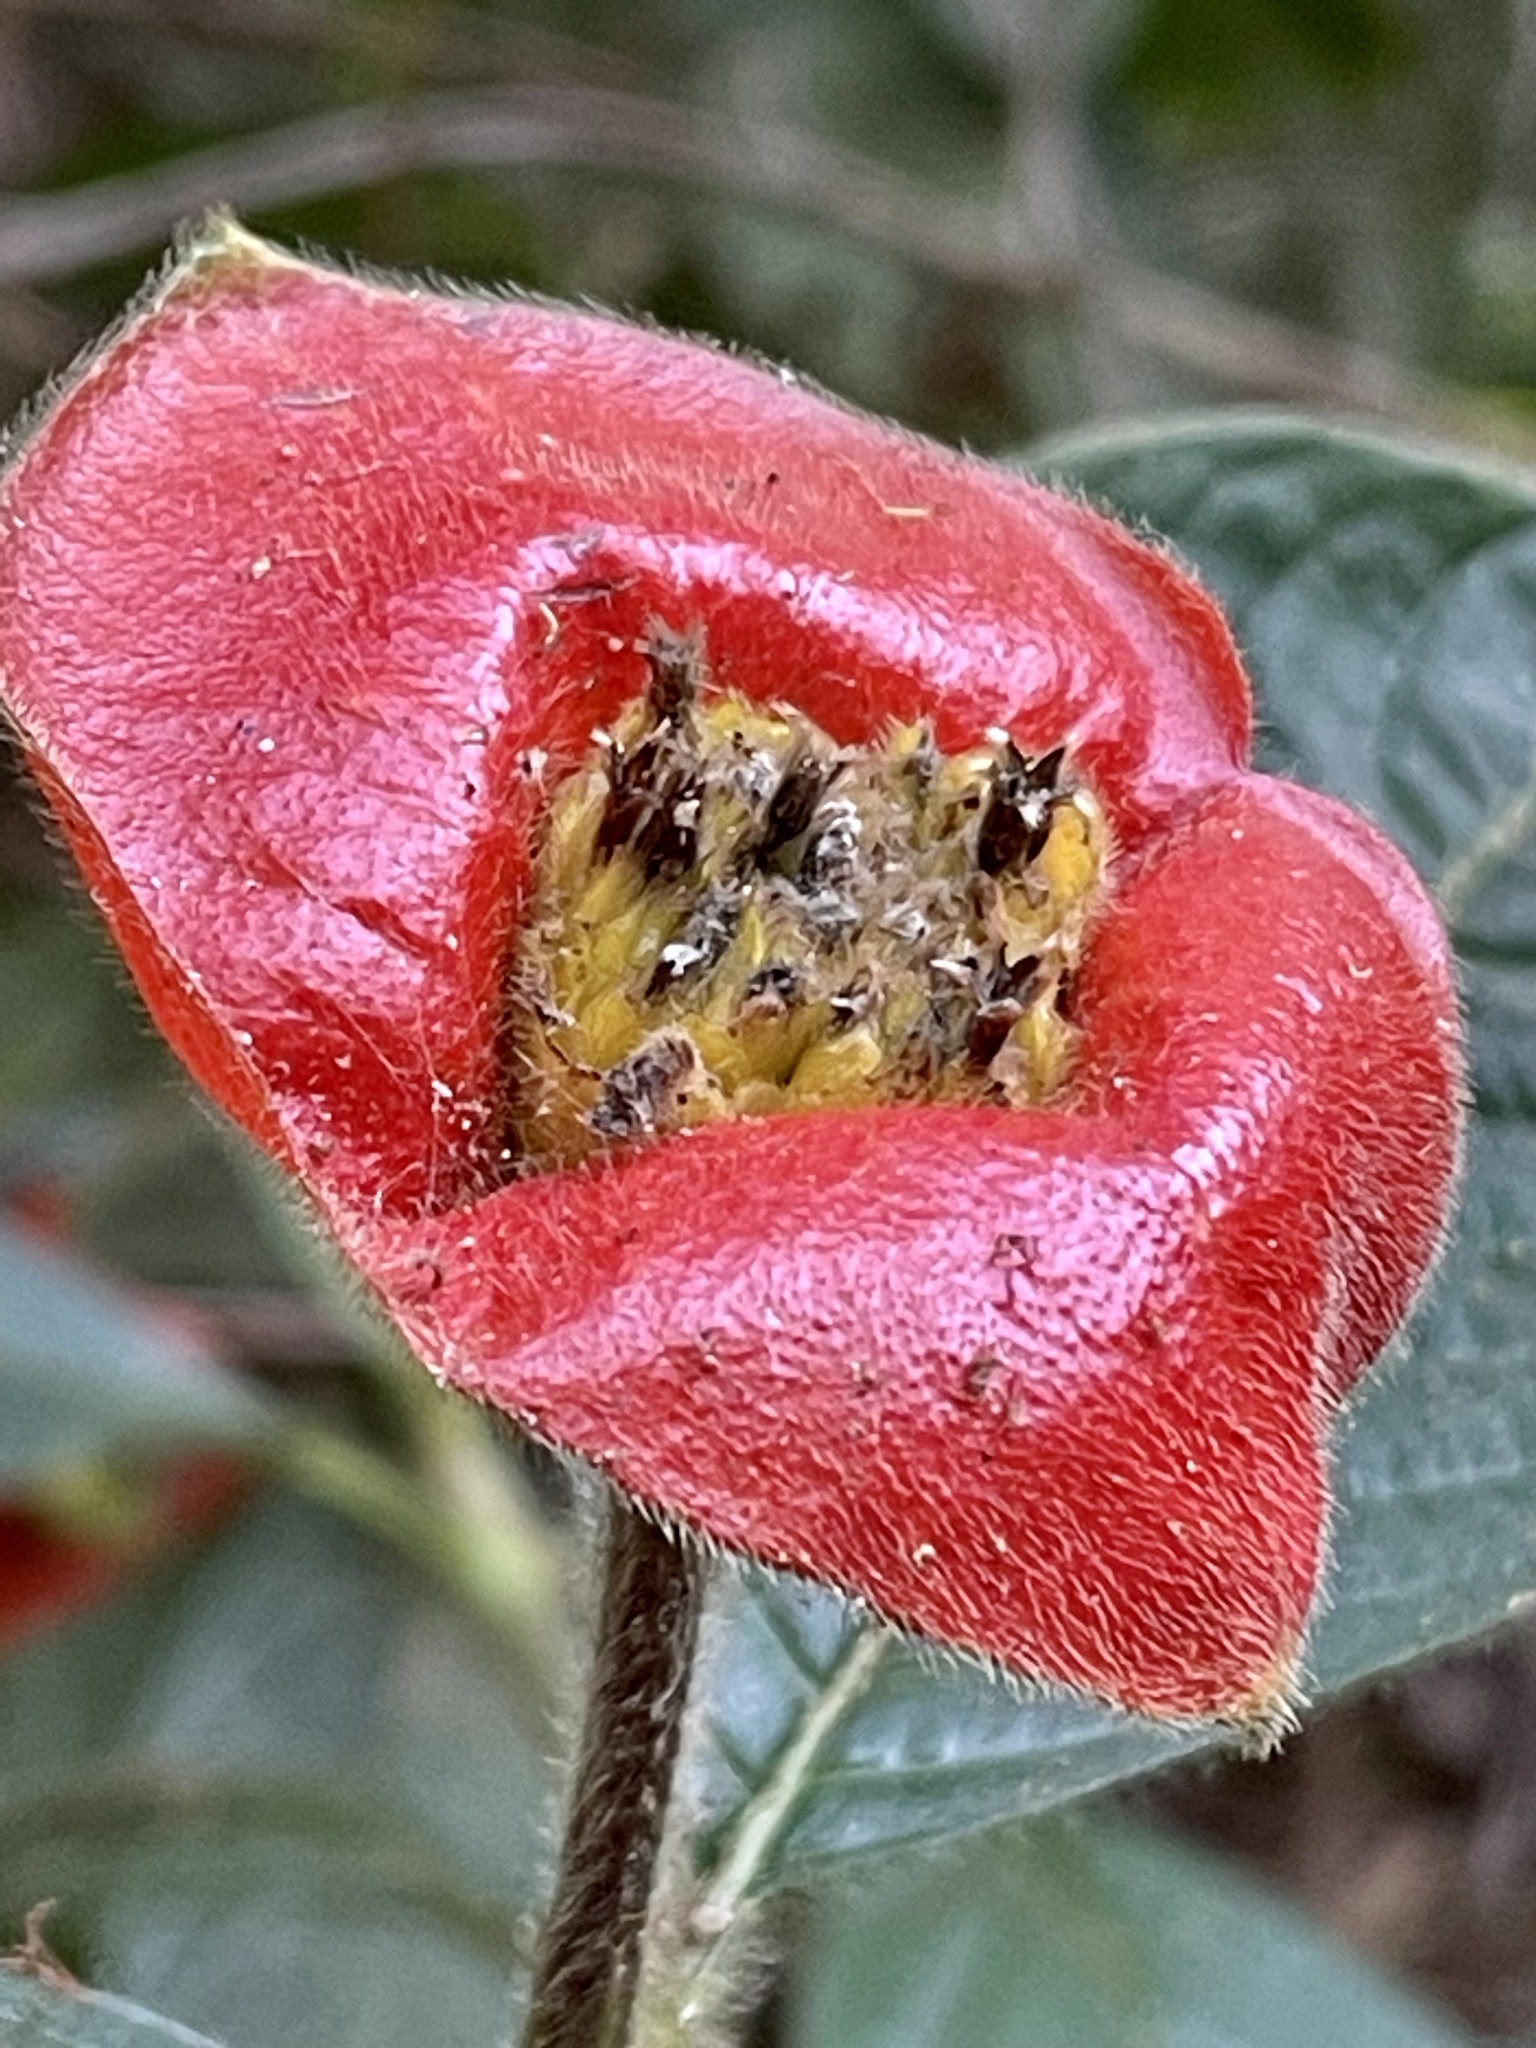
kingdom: Plantae
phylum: Tracheophyta
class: Magnoliopsida
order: Gentianales
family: Rubiaceae
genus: Palicourea
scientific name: Palicourea tomentosa
